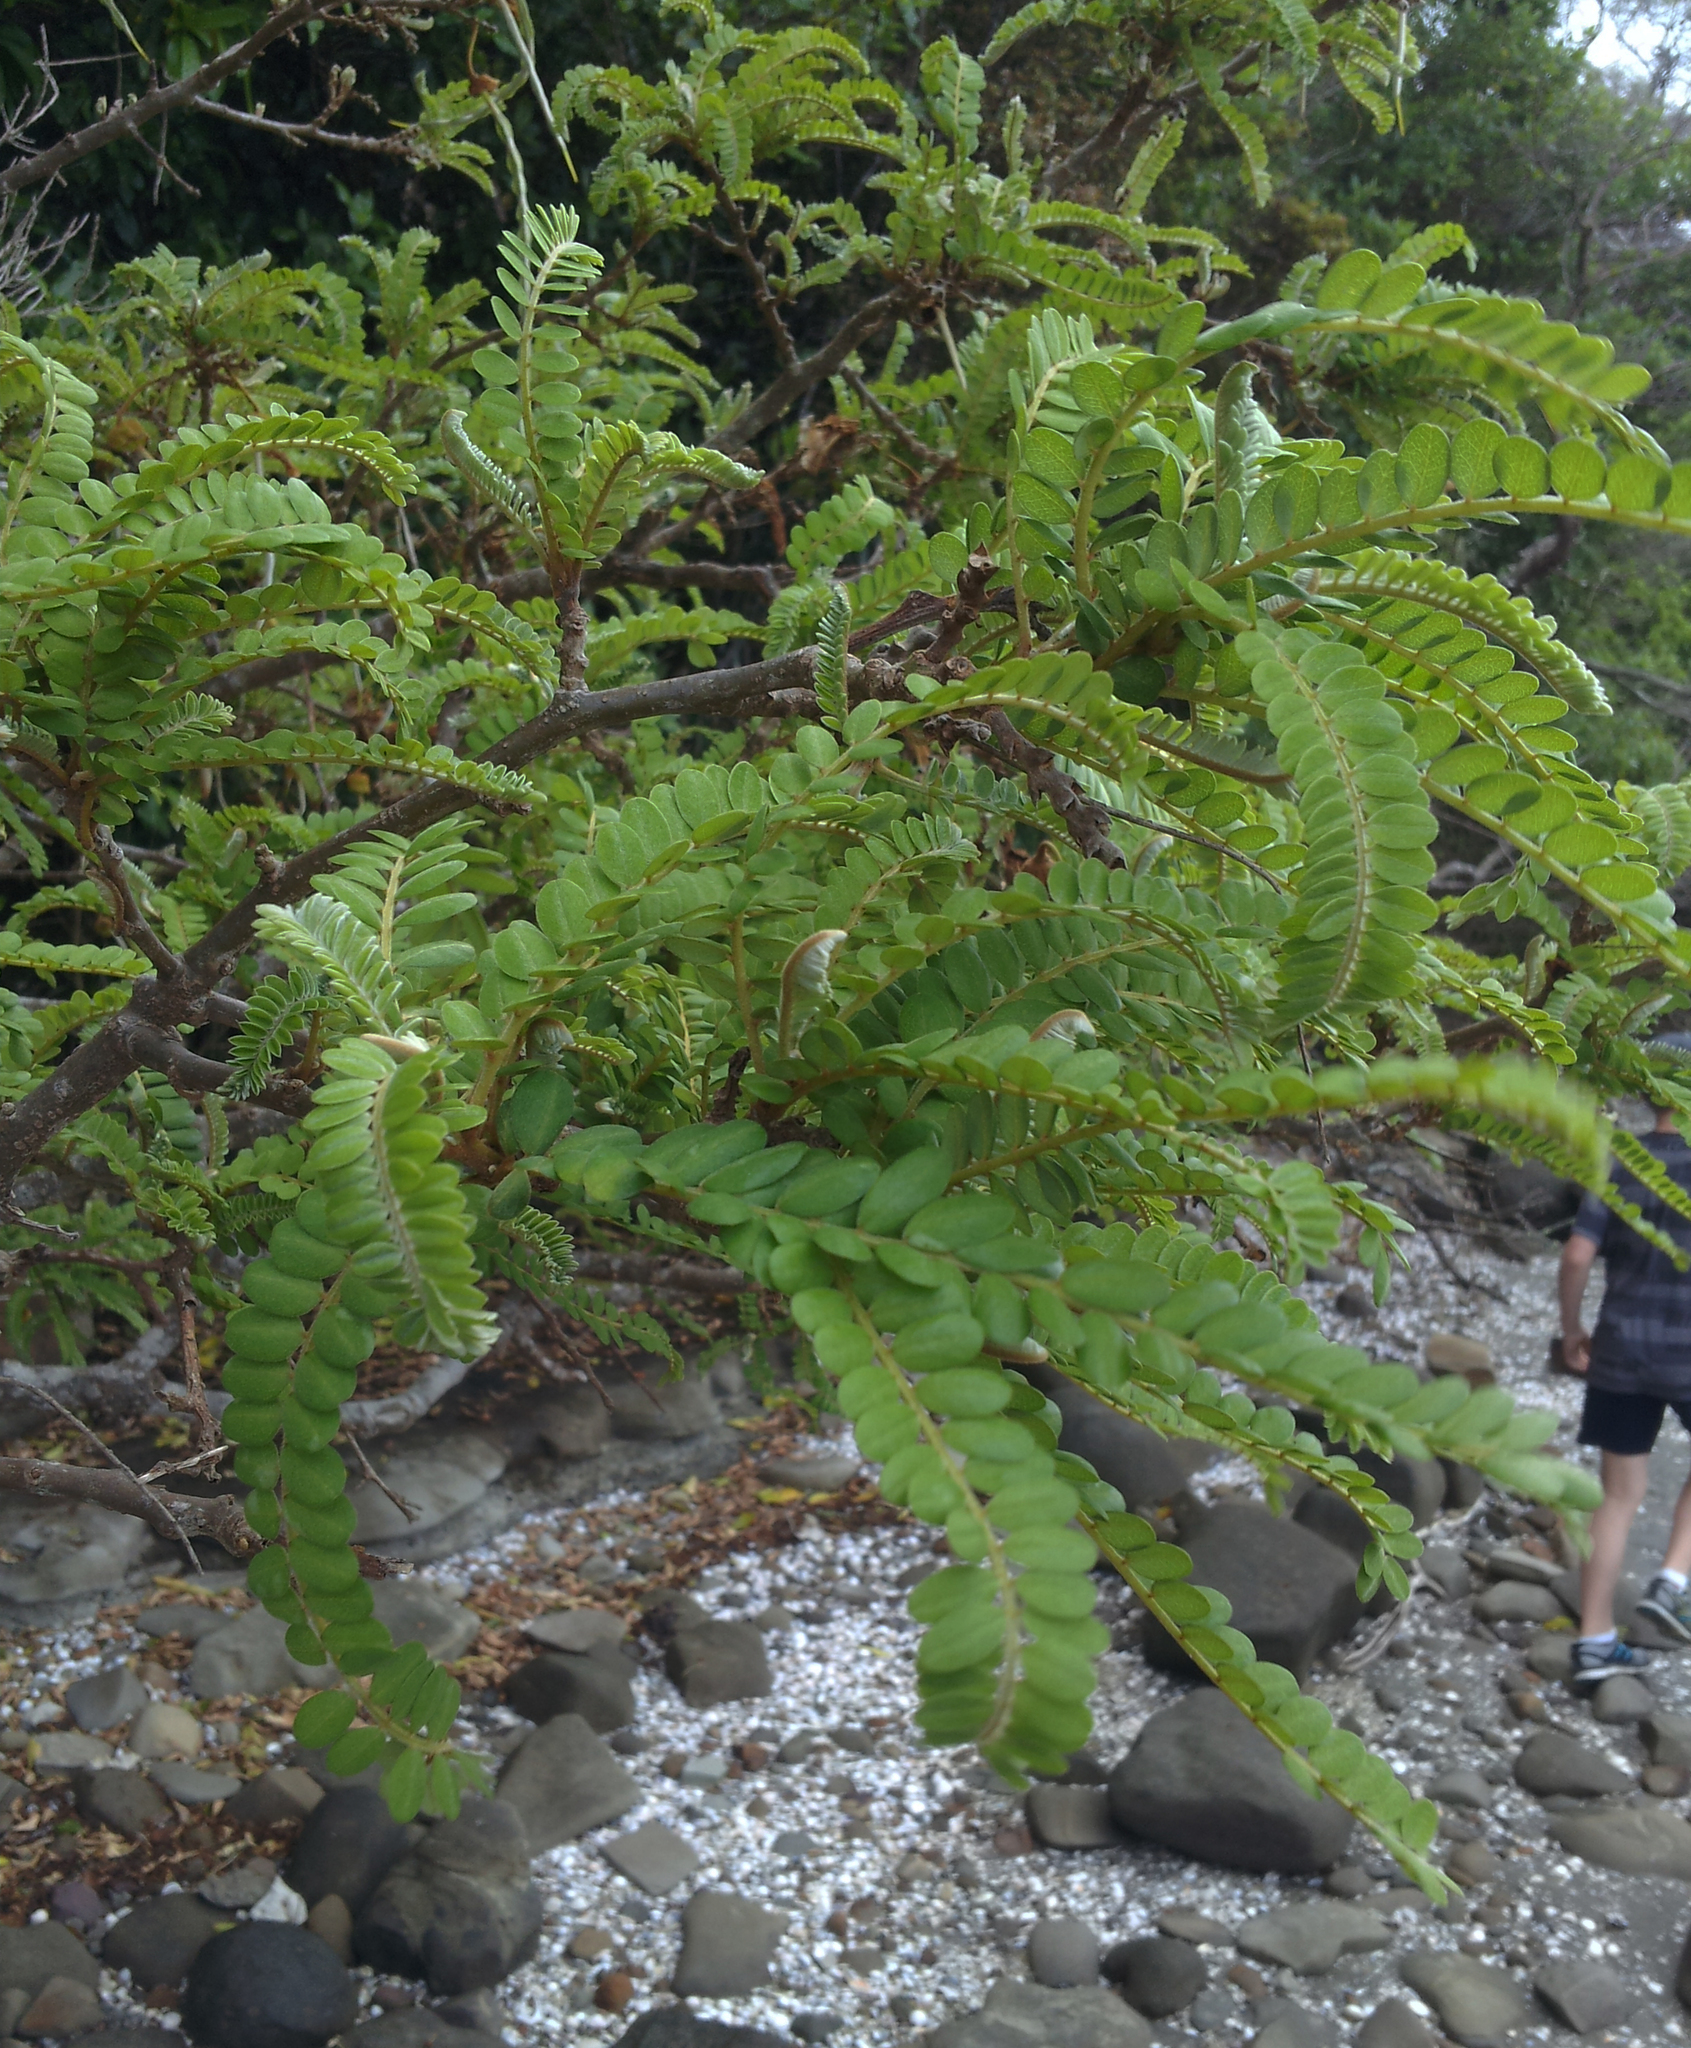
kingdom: Plantae
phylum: Tracheophyta
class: Magnoliopsida
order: Fabales
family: Fabaceae
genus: Sophora
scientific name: Sophora chathamica
